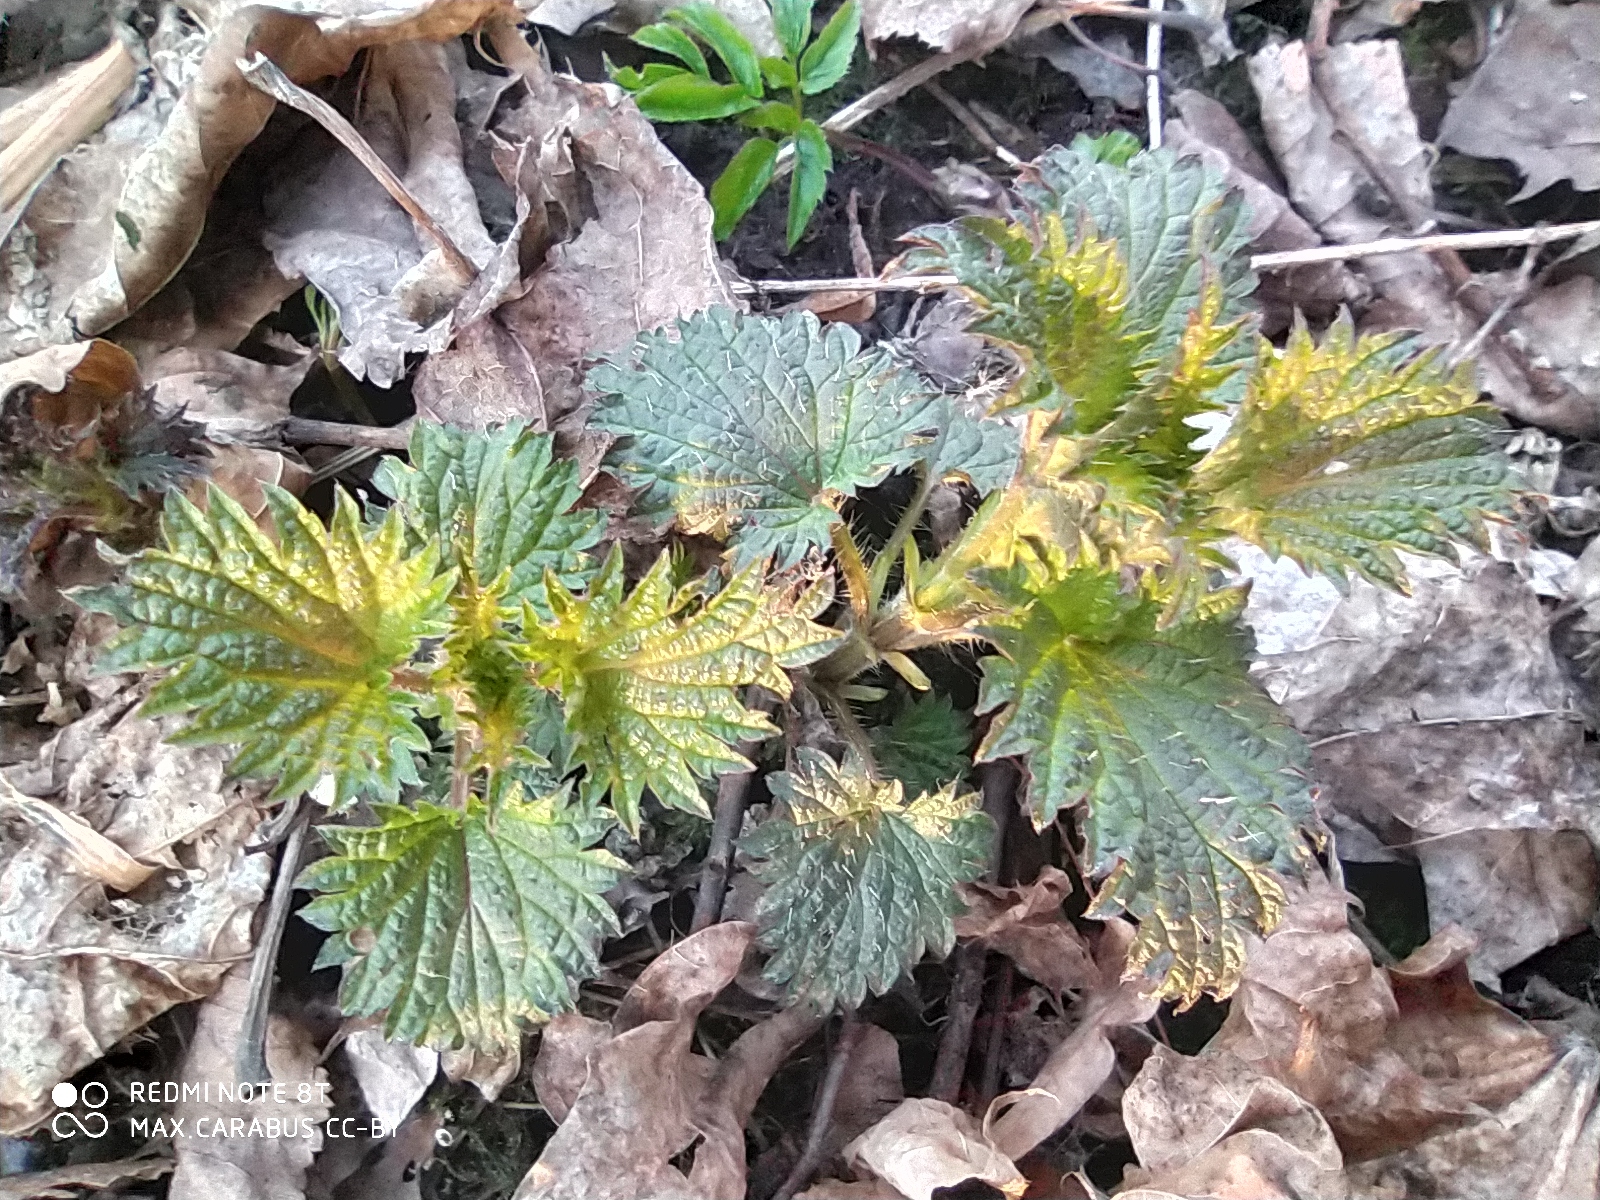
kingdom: Plantae
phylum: Tracheophyta
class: Magnoliopsida
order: Rosales
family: Urticaceae
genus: Urtica
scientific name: Urtica dioica
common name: Common nettle
